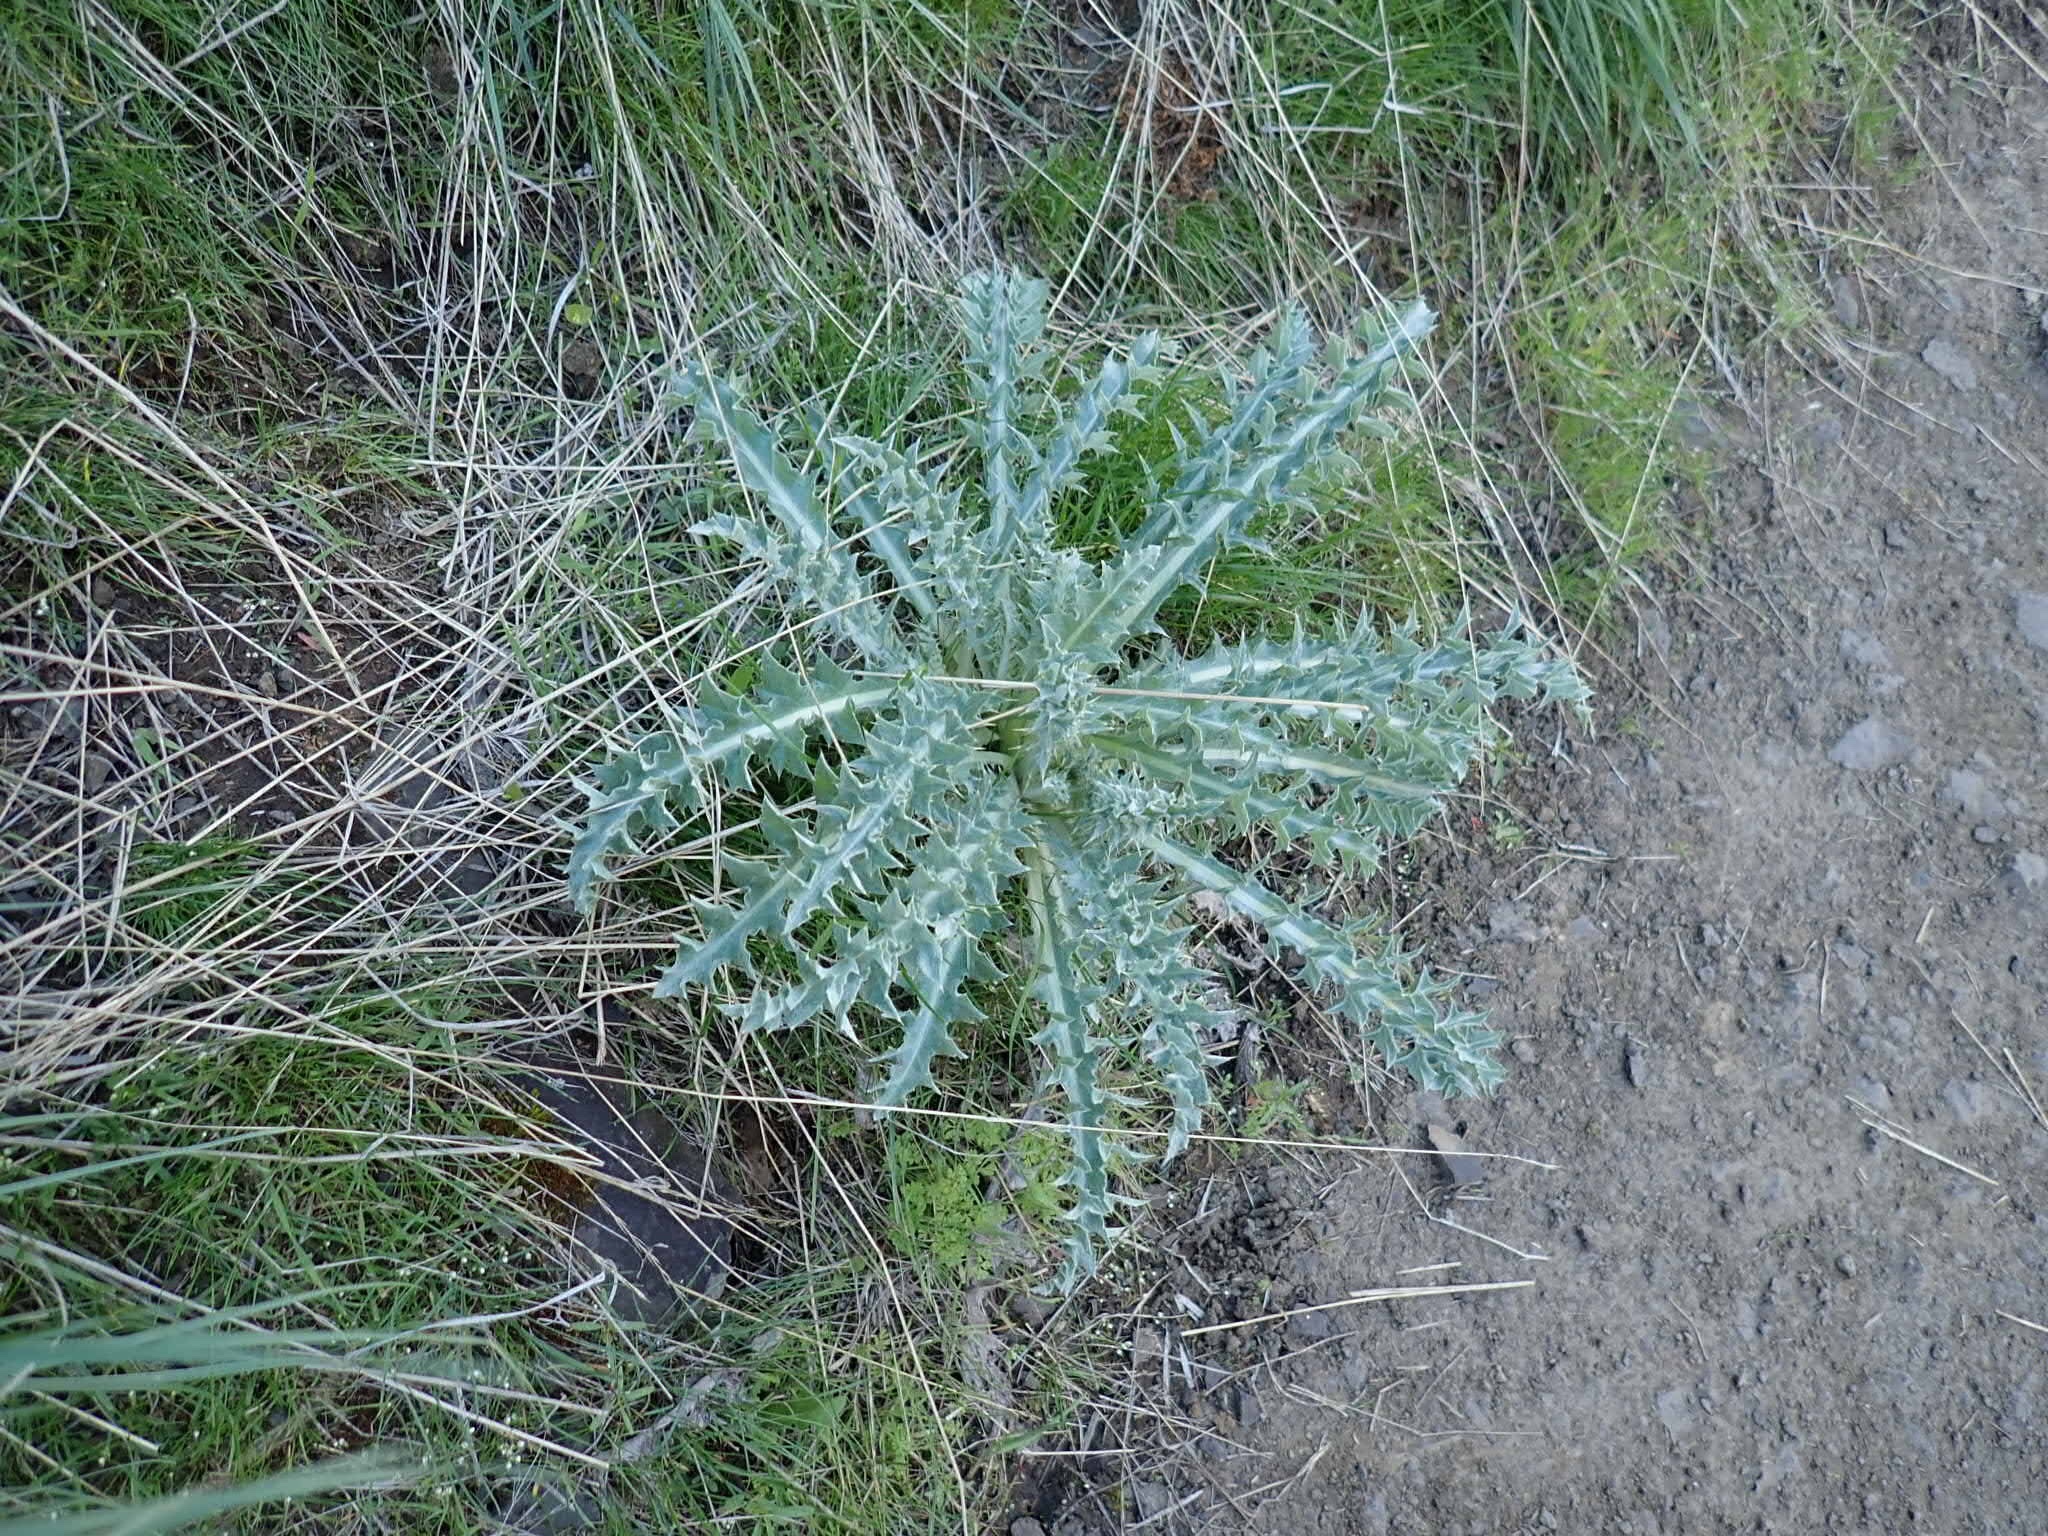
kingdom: Plantae
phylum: Tracheophyta
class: Magnoliopsida
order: Asterales
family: Asteraceae
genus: Cirsium
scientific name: Cirsium undulatum
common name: Pasture thistle
